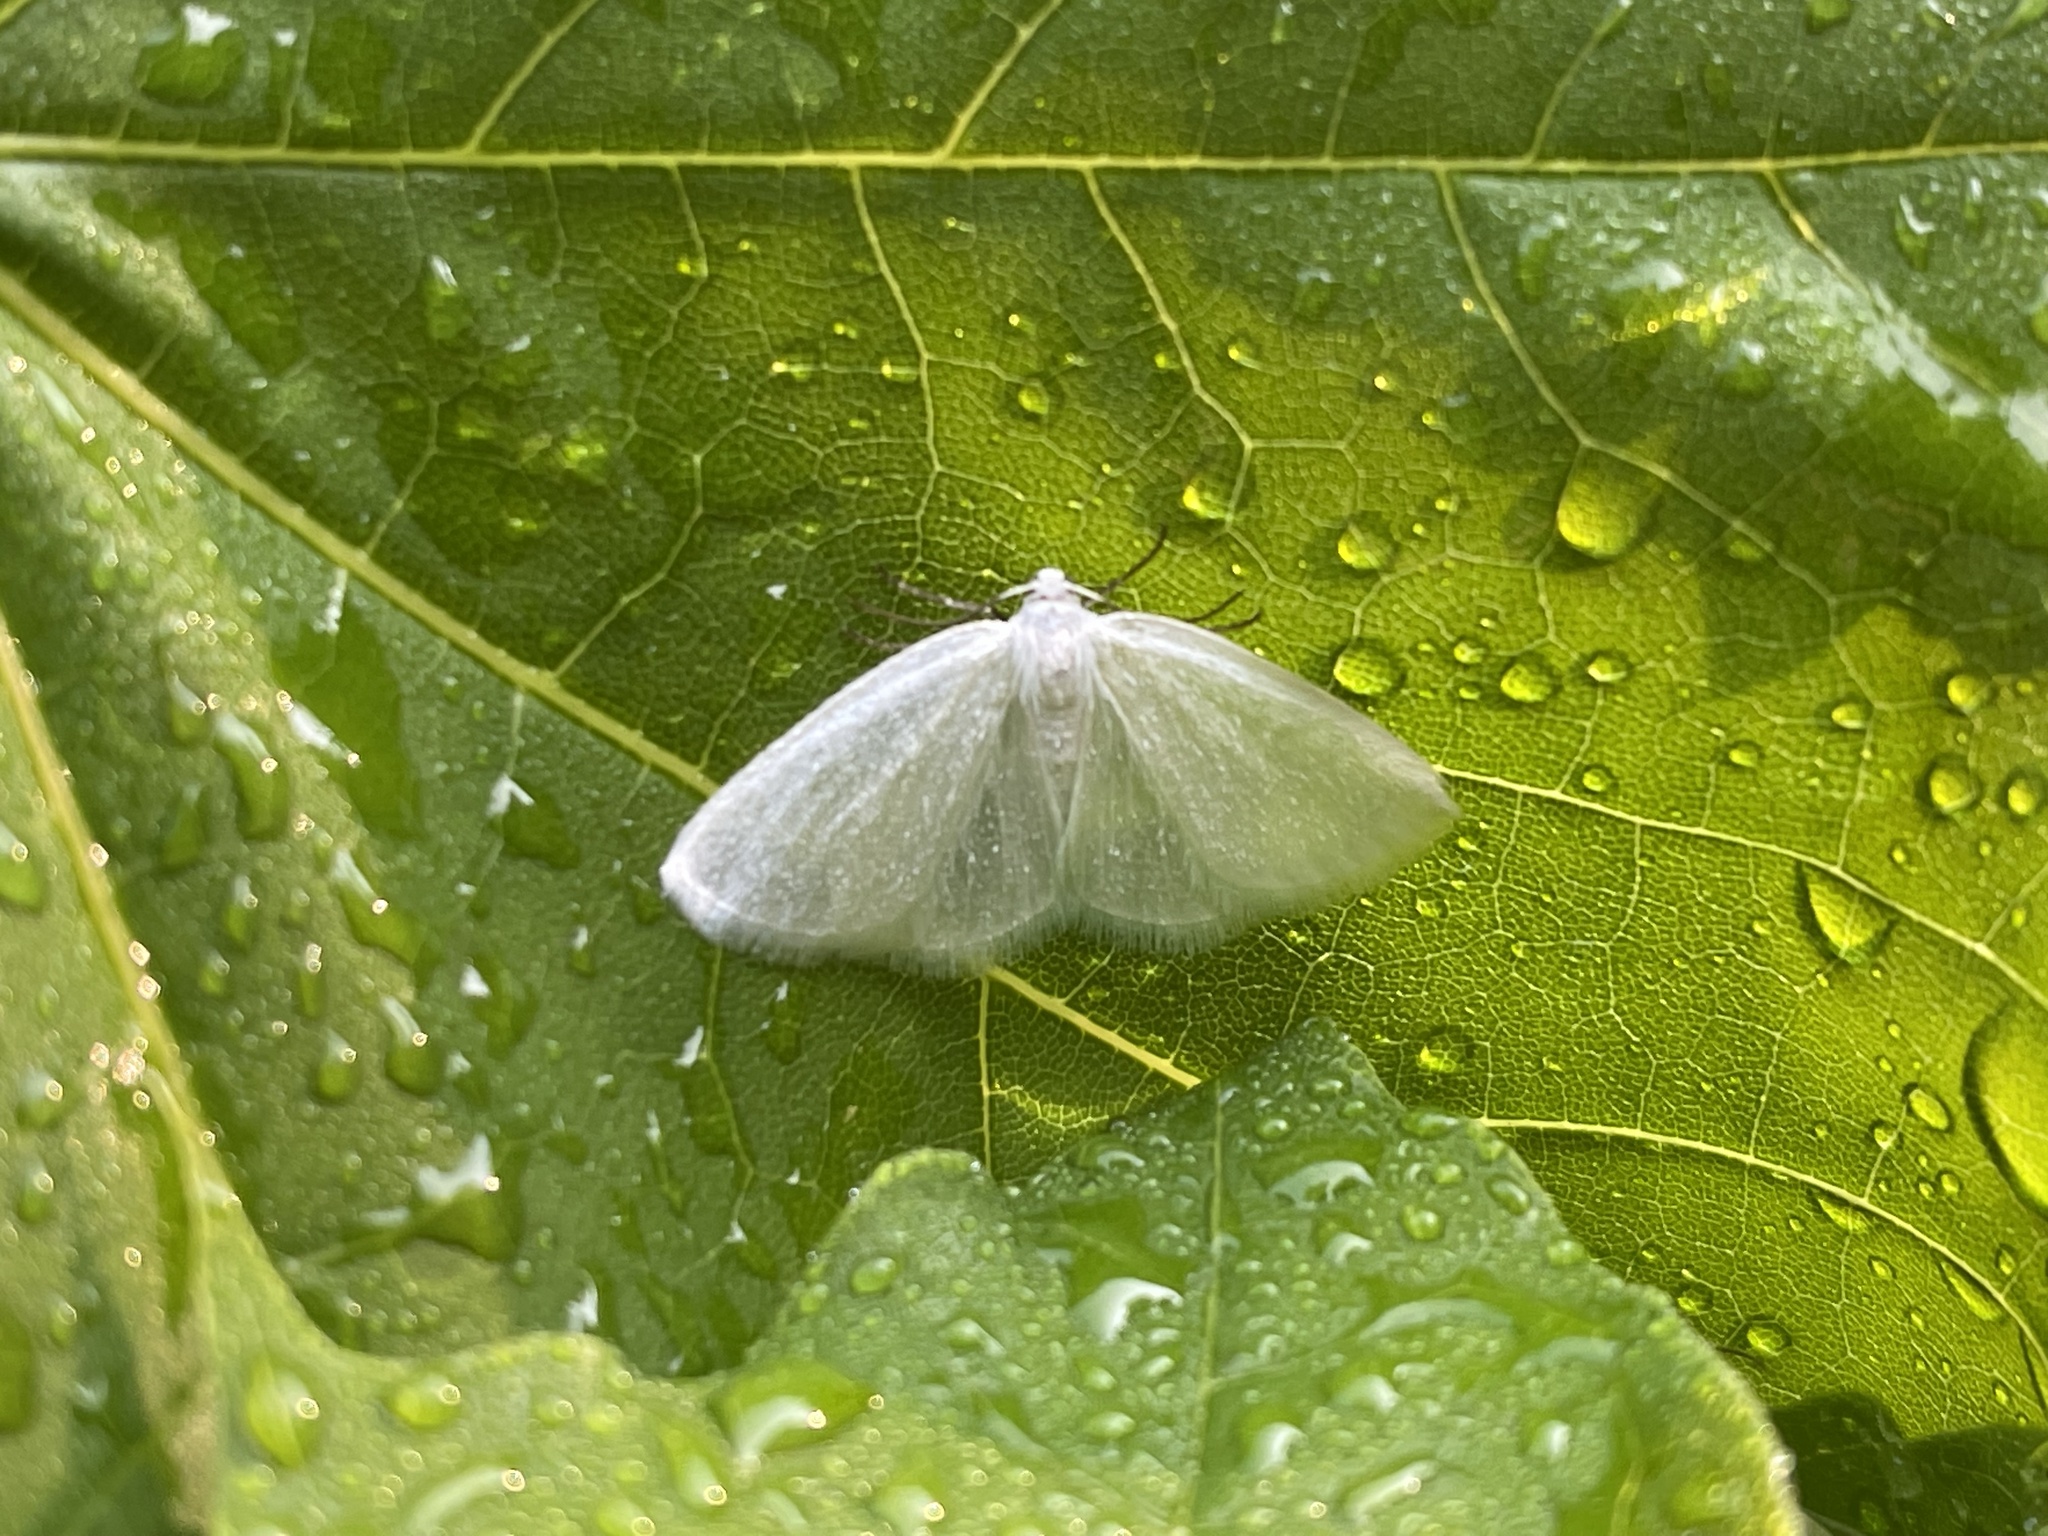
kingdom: Animalia
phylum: Arthropoda
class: Insecta
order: Lepidoptera
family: Geometridae
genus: Lomographa
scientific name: Lomographa vestaliata
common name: White spring moth
